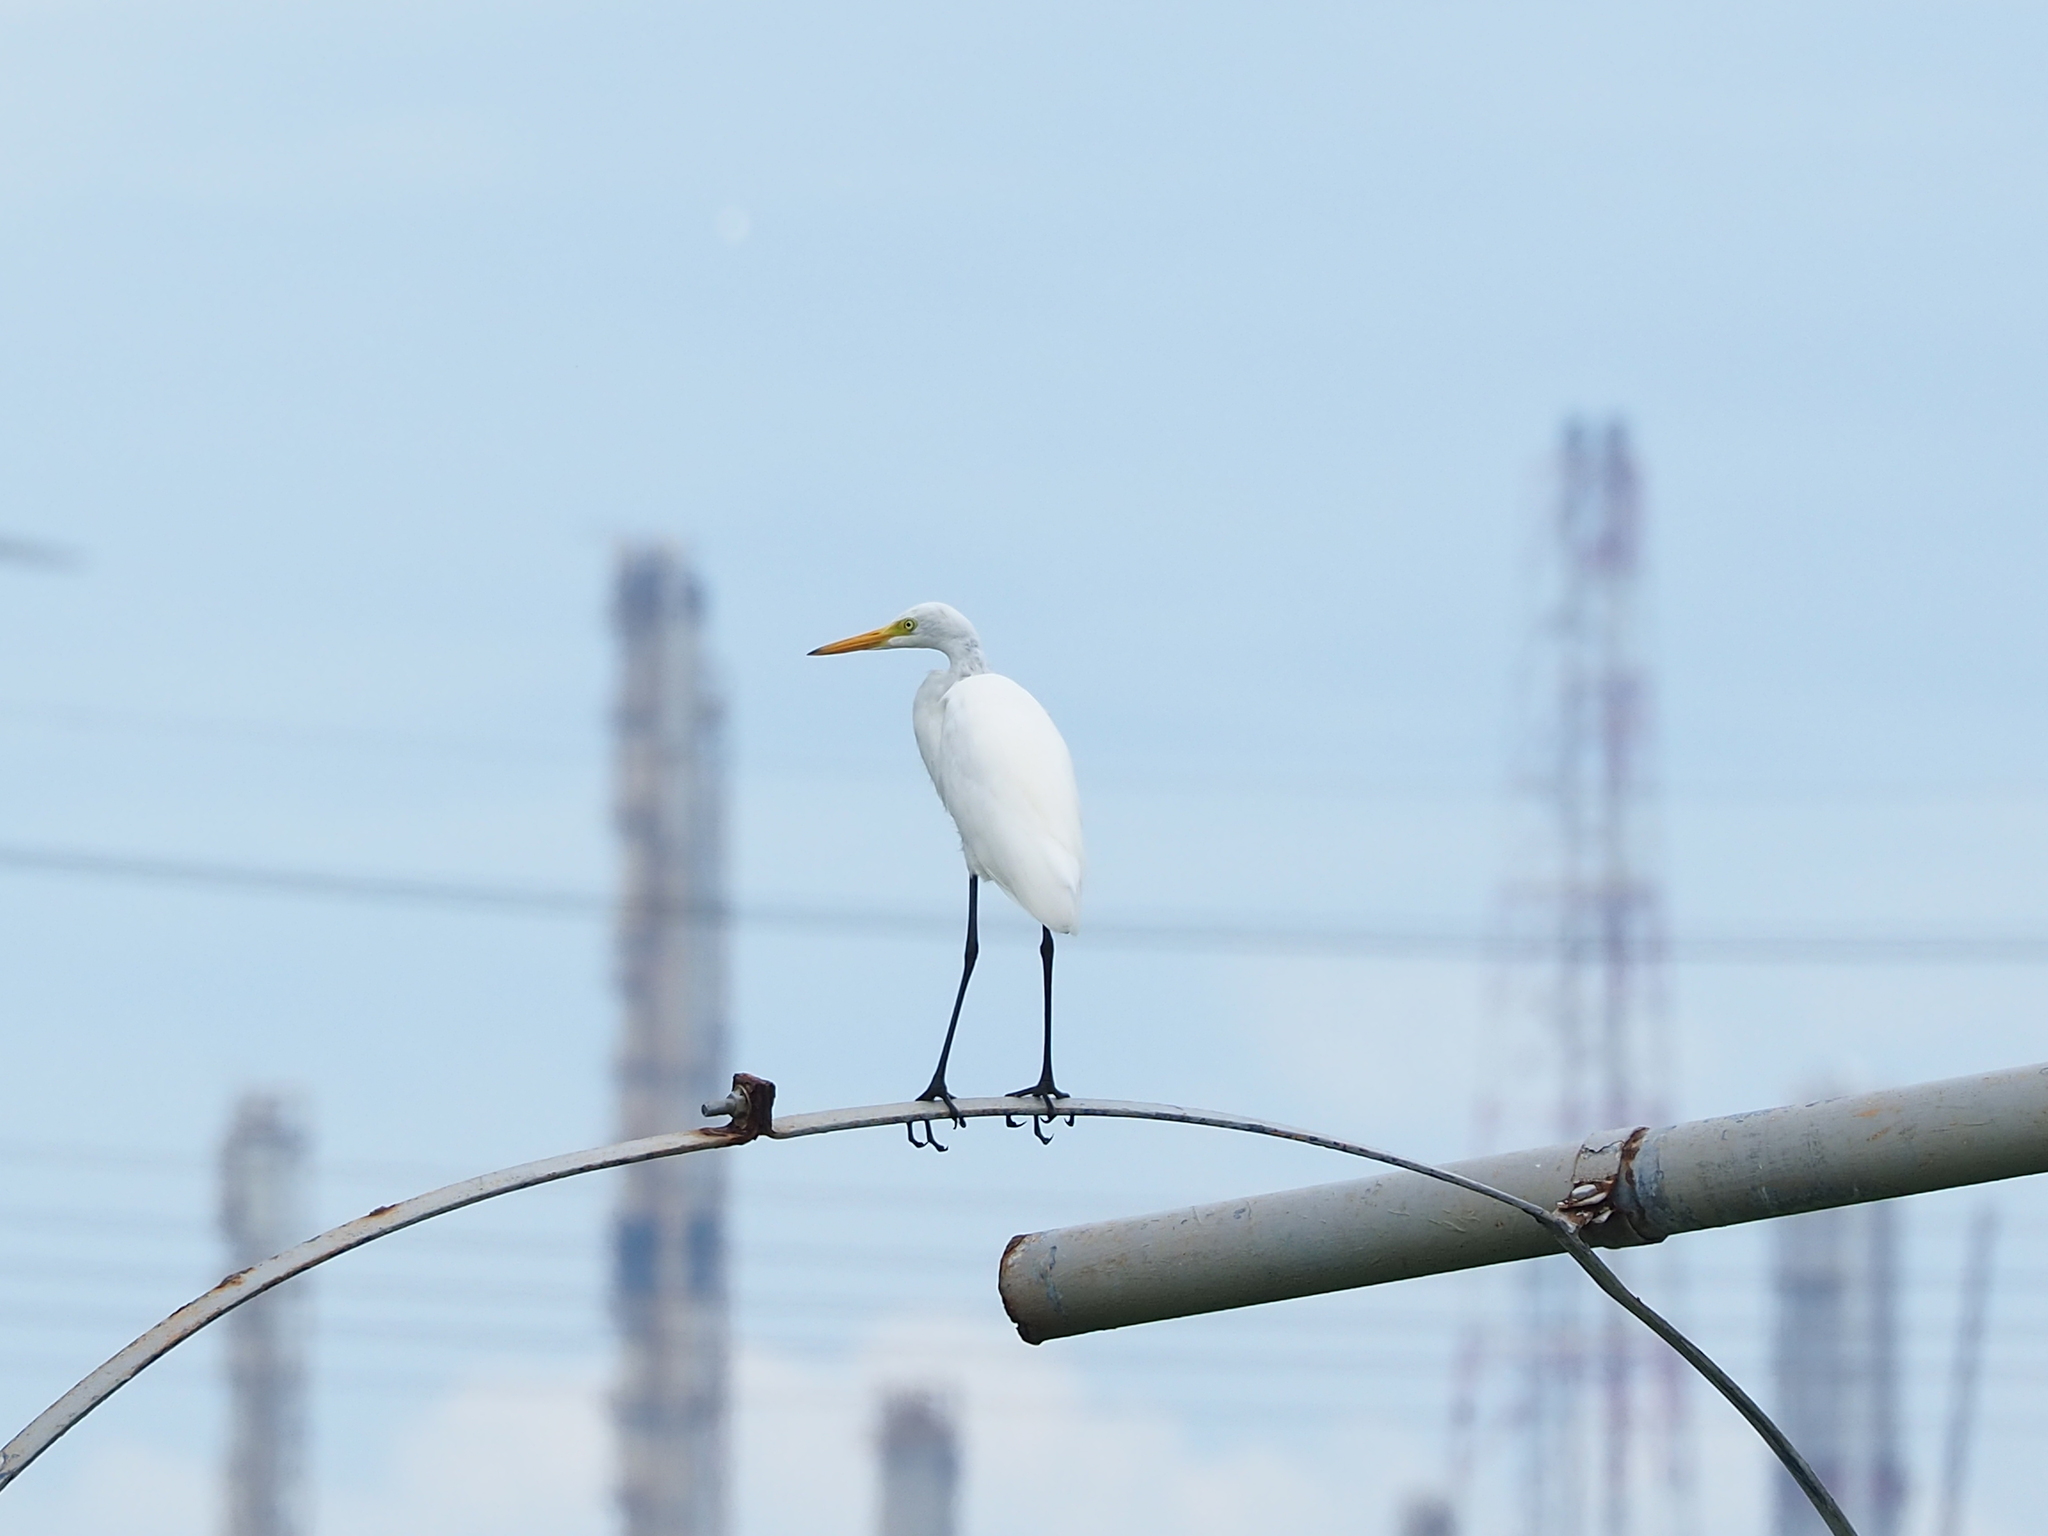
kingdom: Animalia
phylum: Chordata
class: Aves
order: Pelecaniformes
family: Ardeidae
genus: Egretta
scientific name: Egretta intermedia
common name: Intermediate egret
